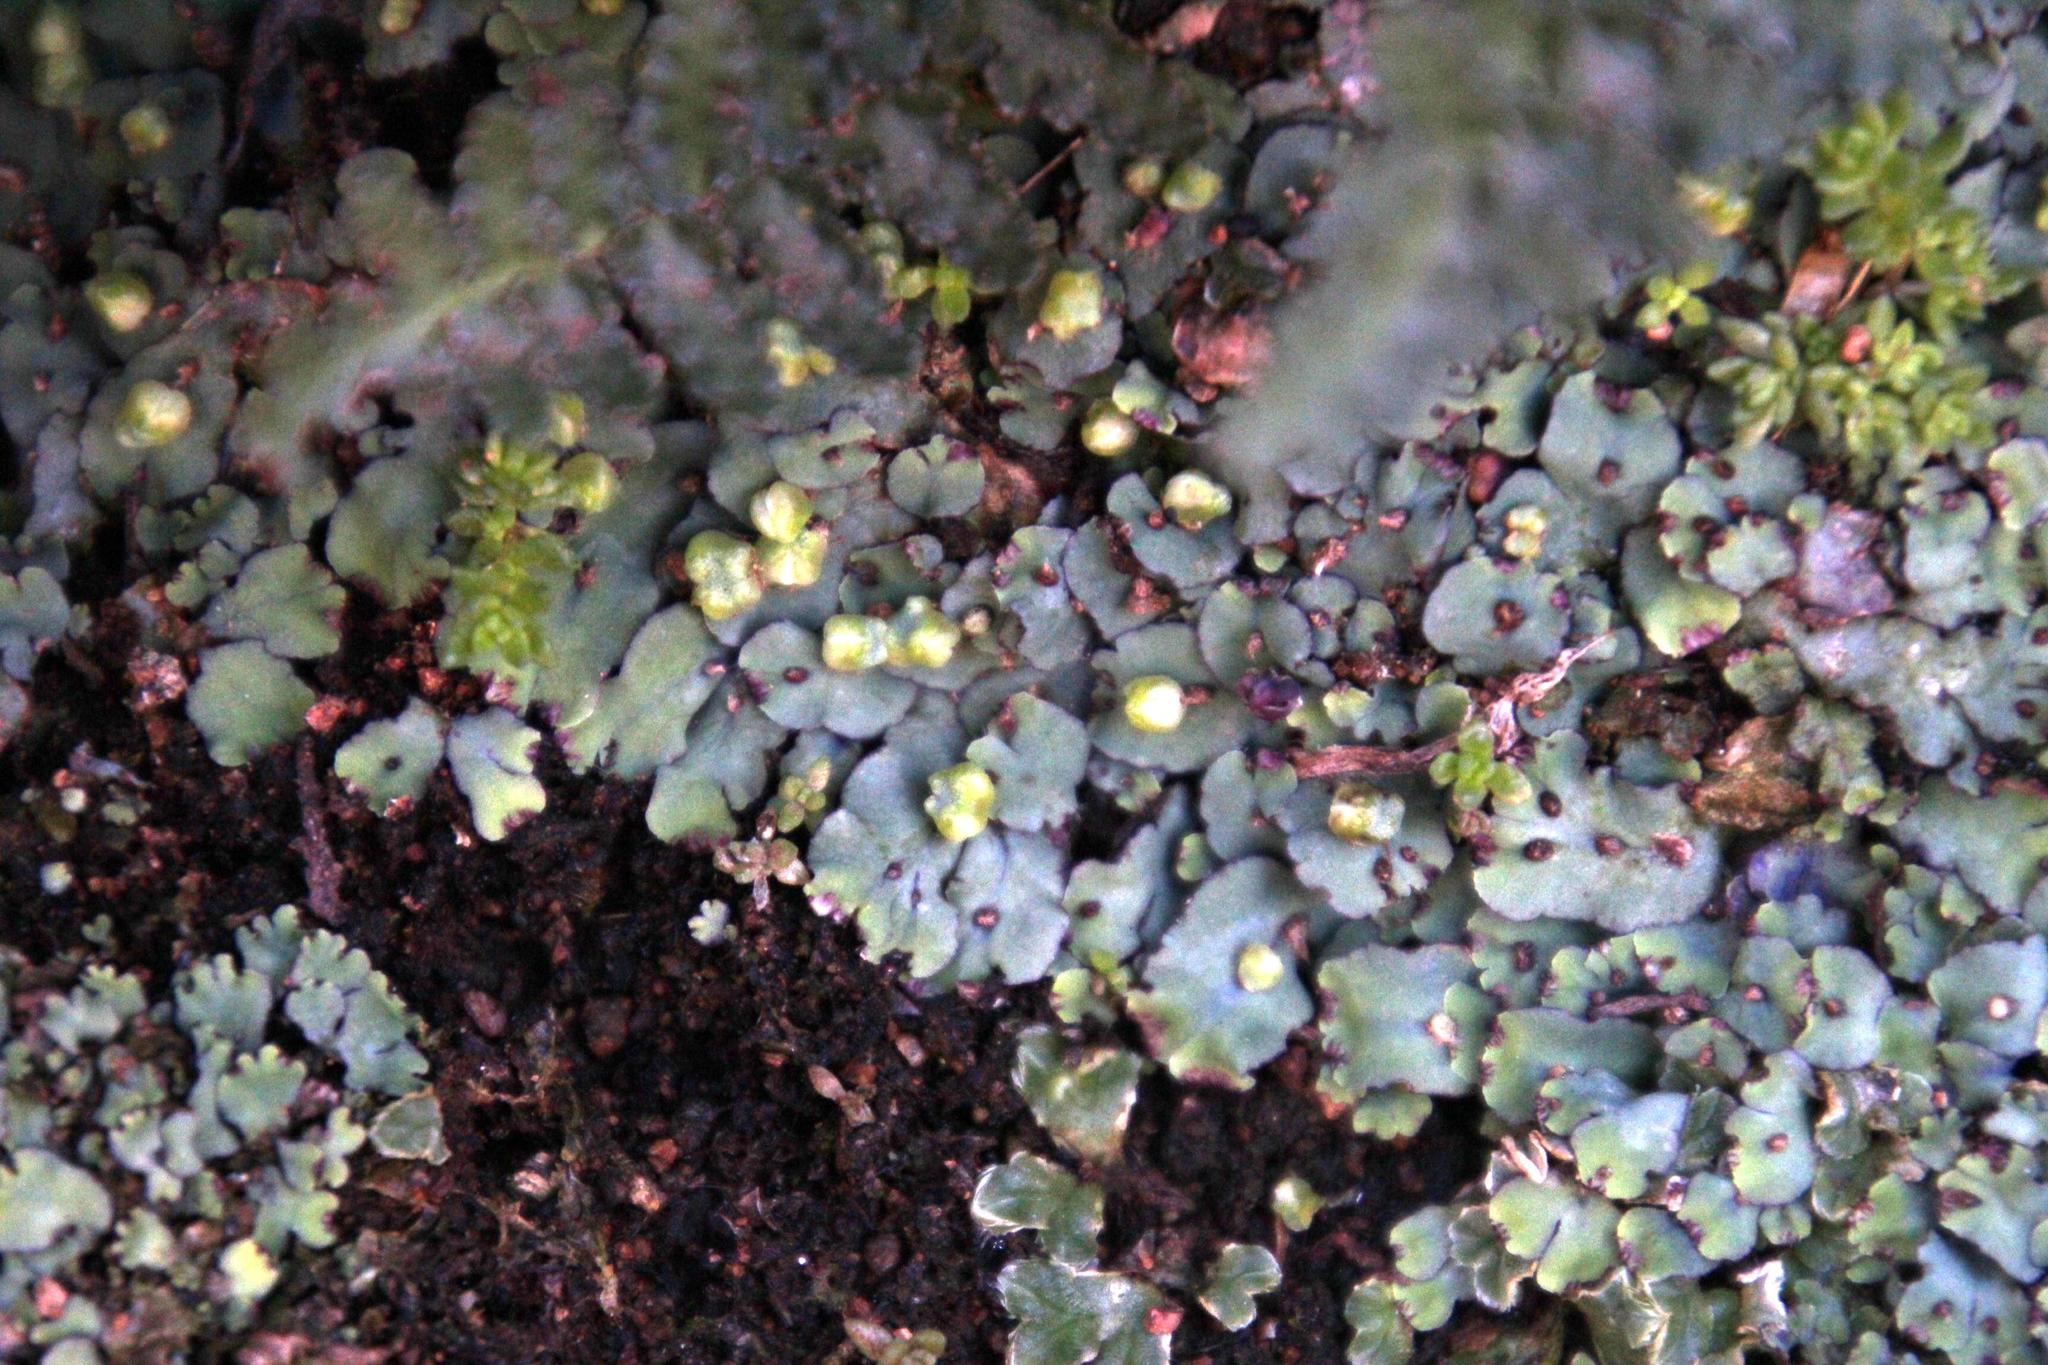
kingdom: Plantae
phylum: Marchantiophyta
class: Marchantiopsida
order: Marchantiales
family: Aytoniaceae
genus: Plagiochasma
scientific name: Plagiochasma rupestre
